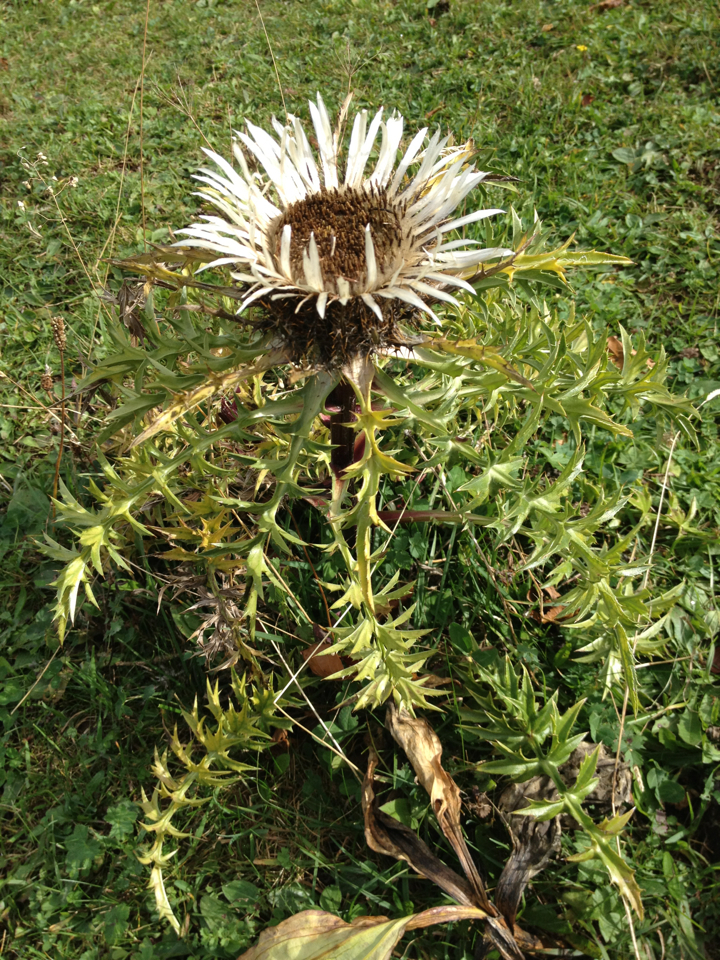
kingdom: Plantae
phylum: Tracheophyta
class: Magnoliopsida
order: Asterales
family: Asteraceae
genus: Carlina
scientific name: Carlina acaulis
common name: Stemless carline thistle
